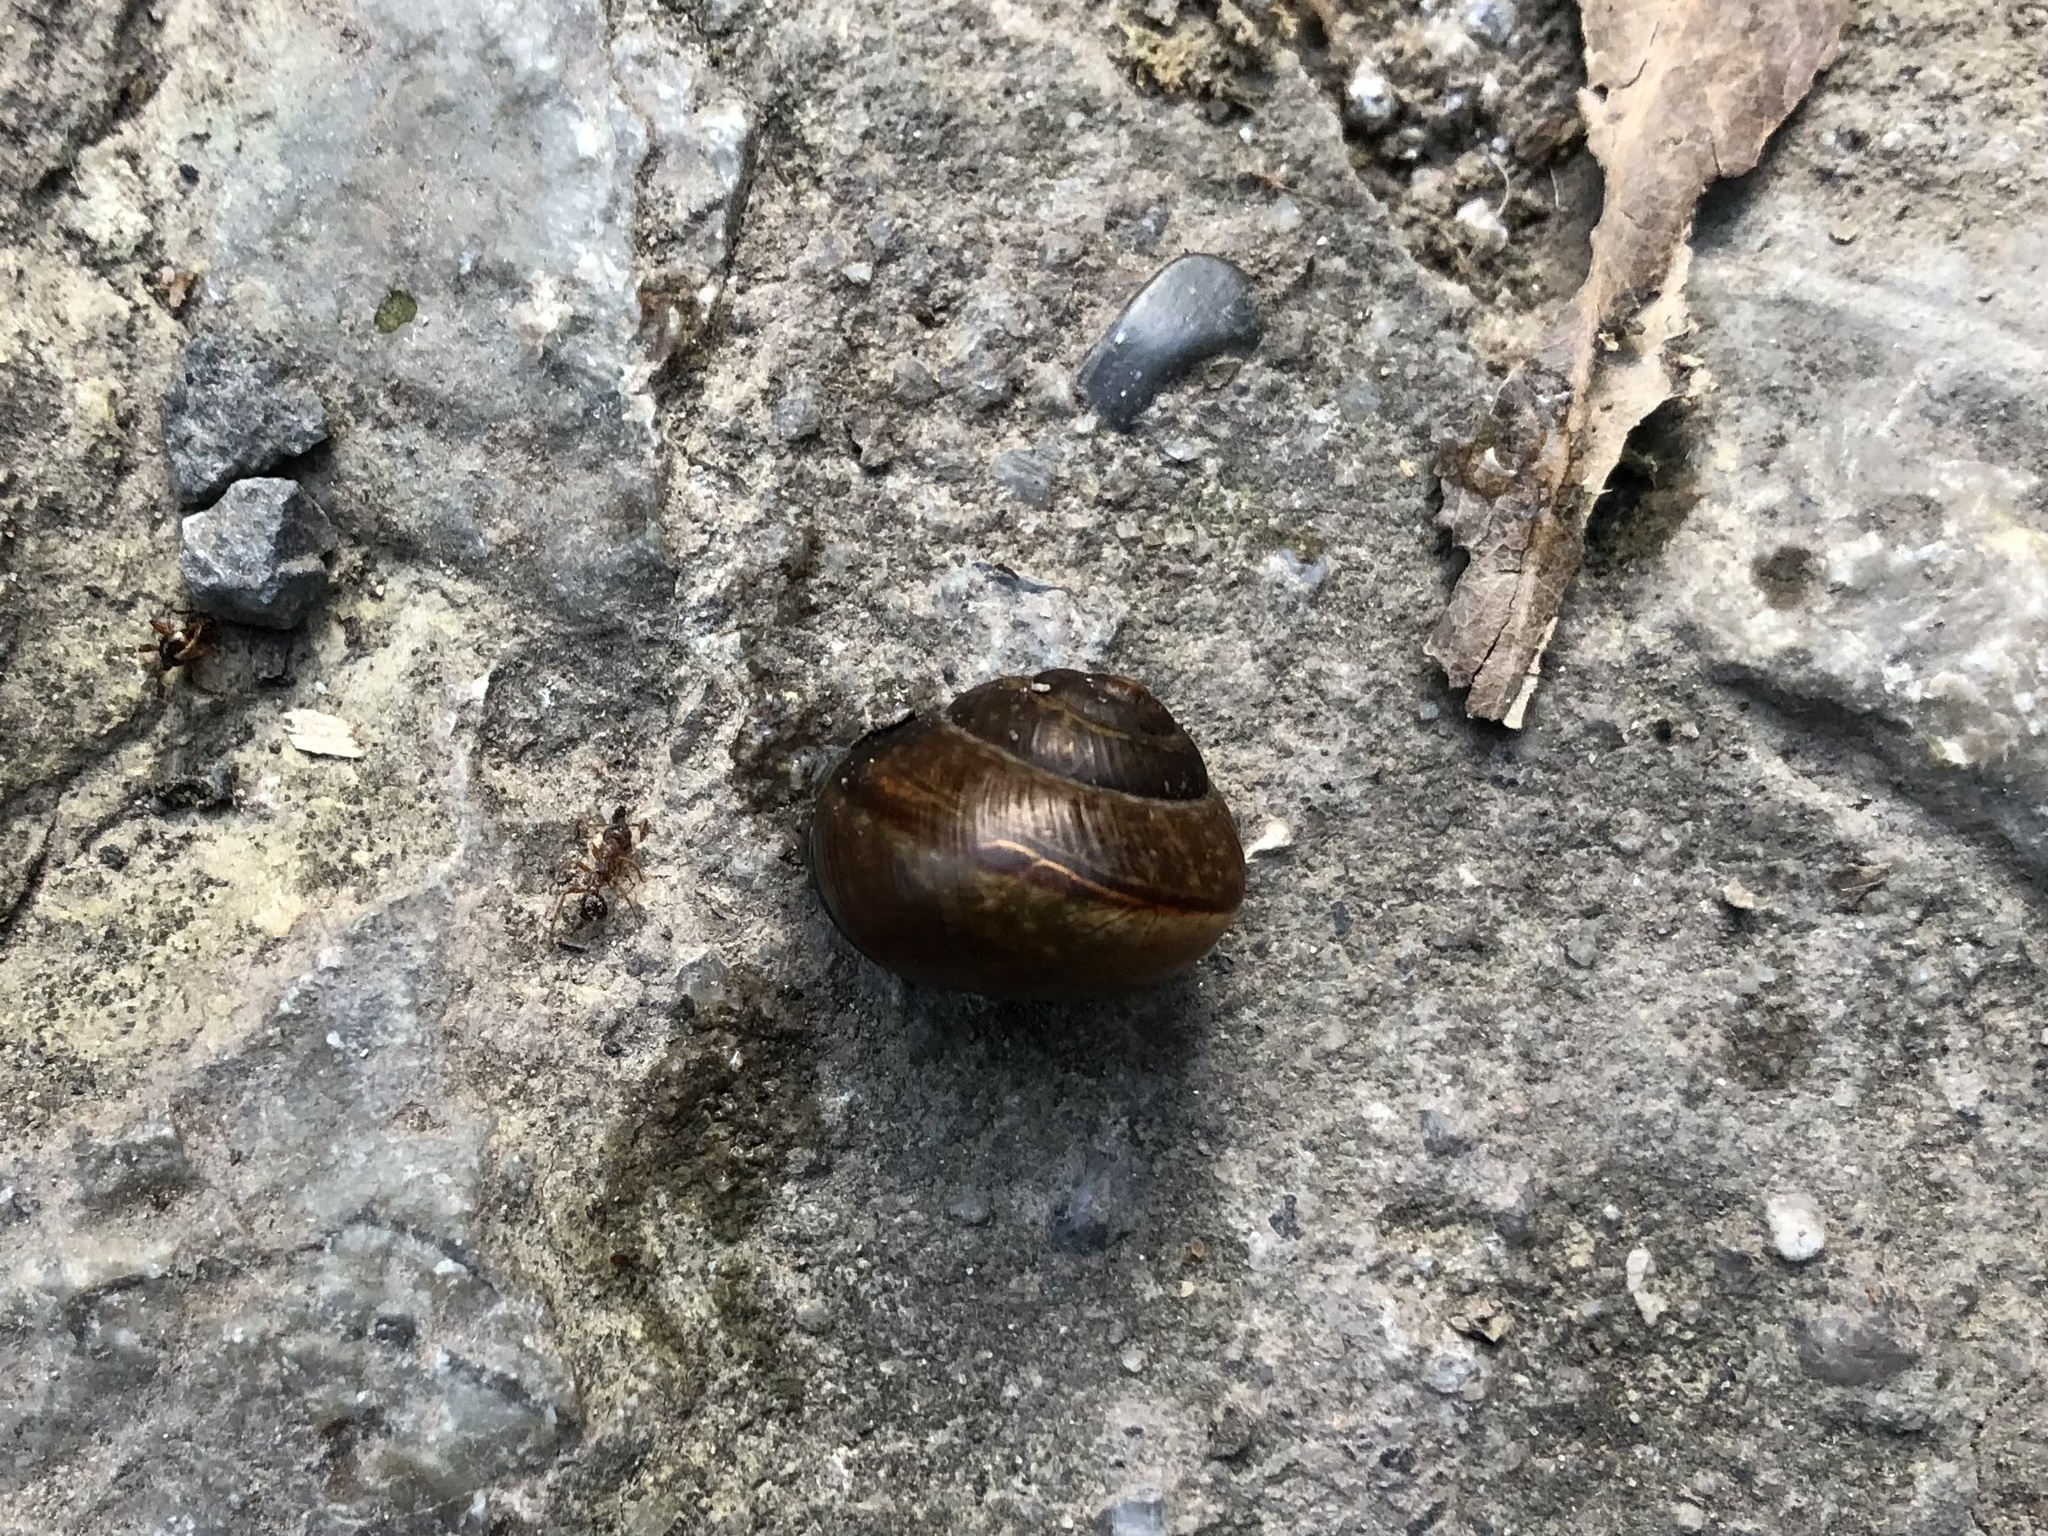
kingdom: Animalia
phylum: Mollusca
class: Gastropoda
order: Stylommatophora
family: Helicidae
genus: Arianta
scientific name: Arianta arbustorum
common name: Copse snail
